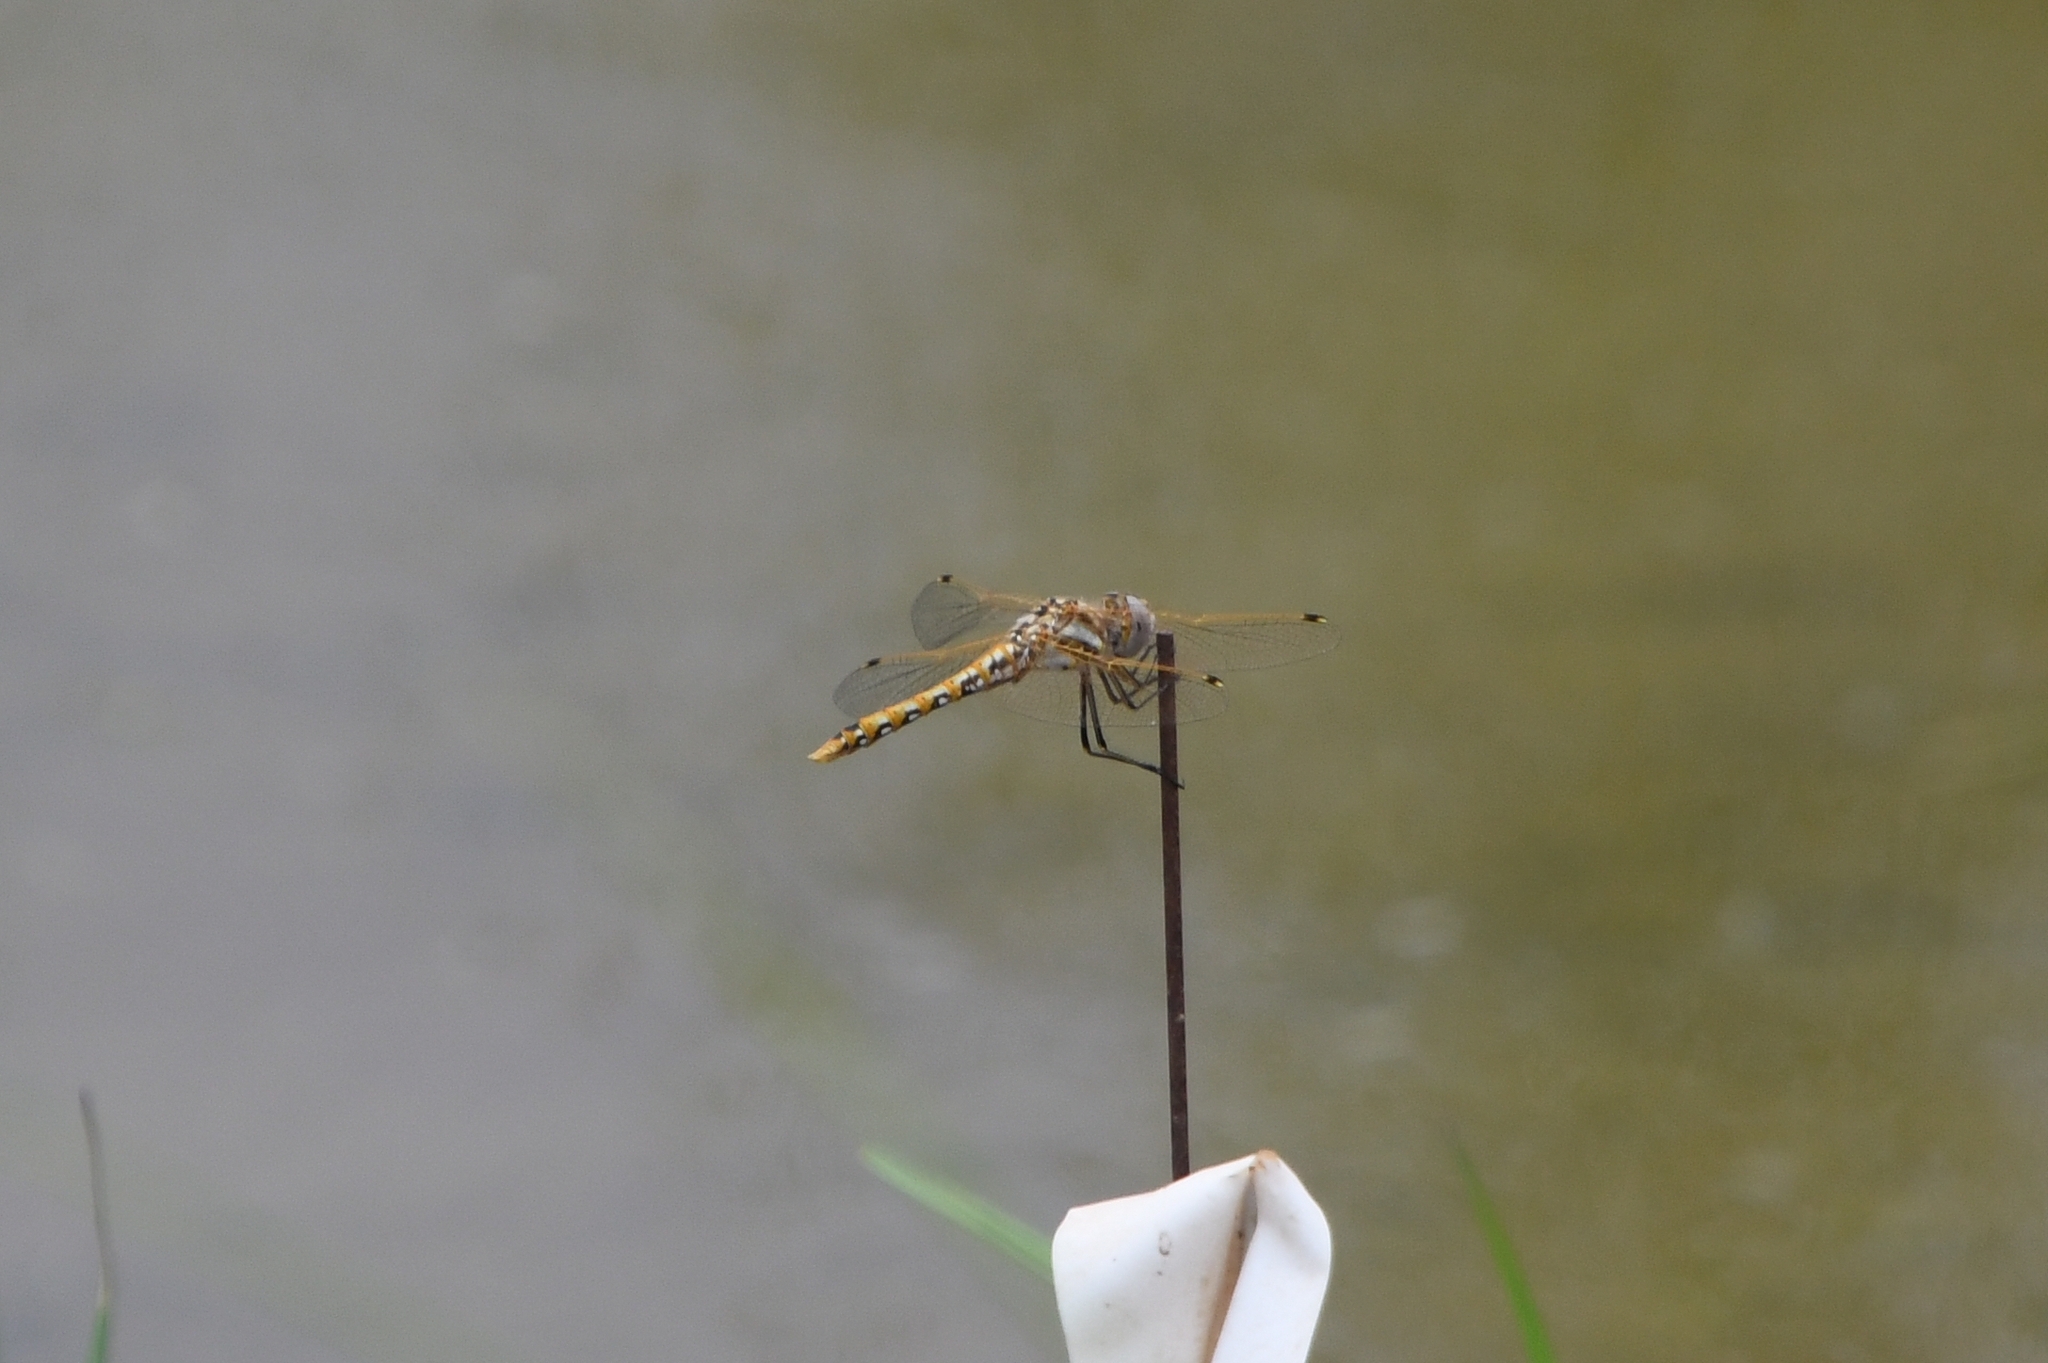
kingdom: Animalia
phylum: Arthropoda
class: Insecta
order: Odonata
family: Libellulidae
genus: Sympetrum
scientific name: Sympetrum corruptum
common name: Variegated meadowhawk
